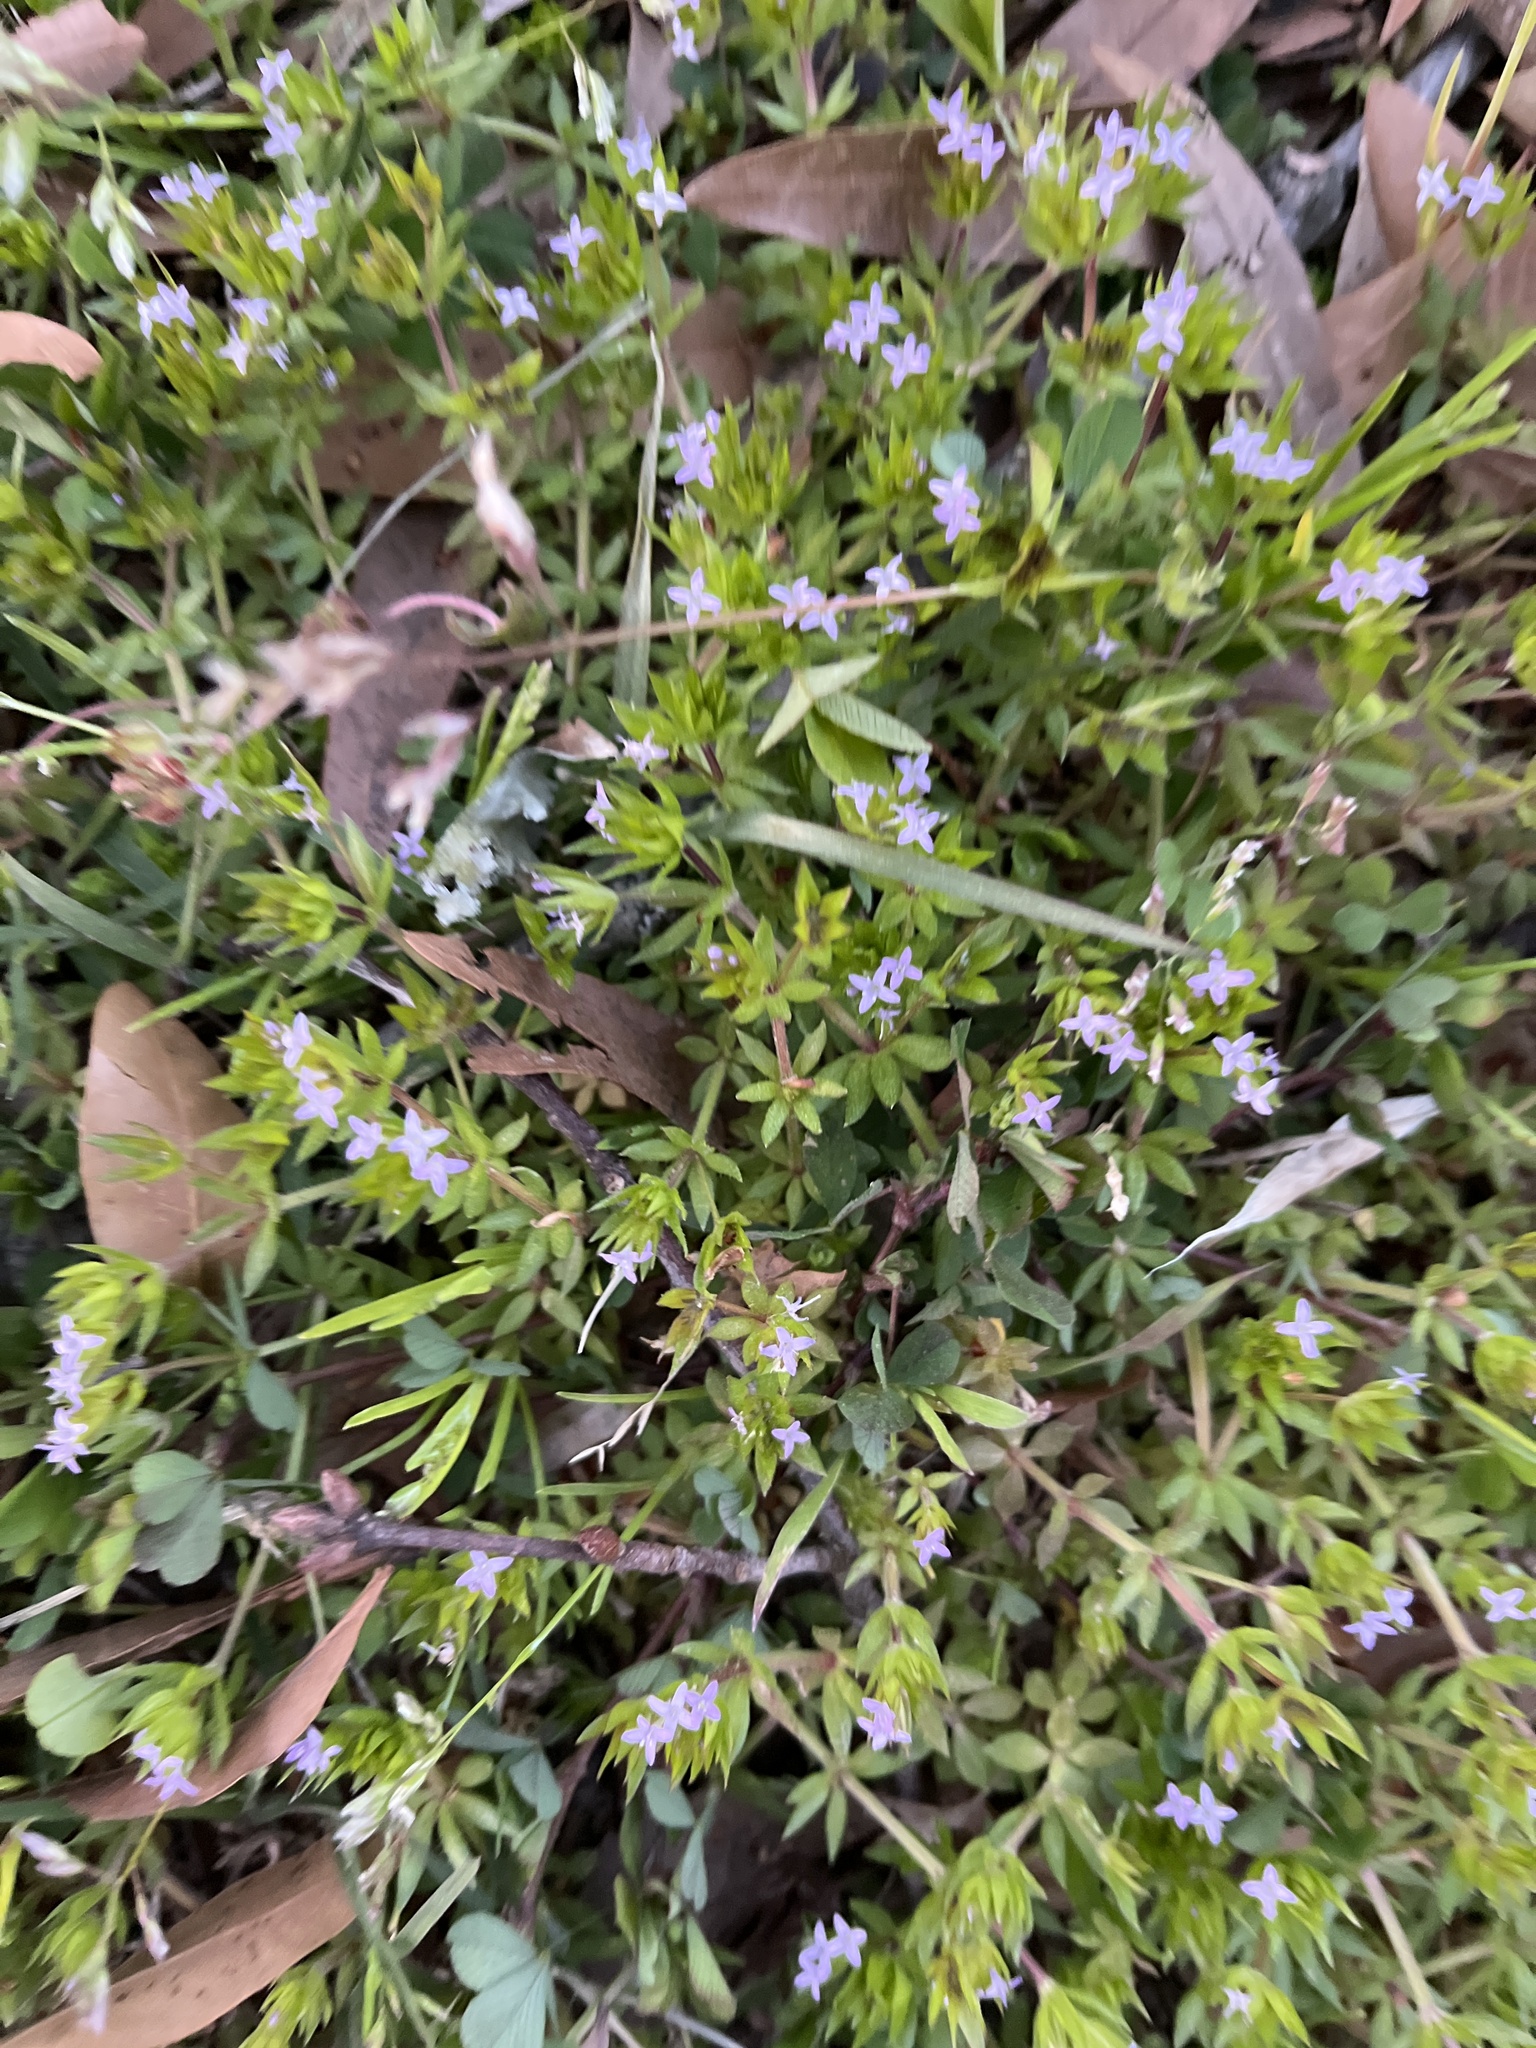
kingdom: Plantae
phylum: Tracheophyta
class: Magnoliopsida
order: Gentianales
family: Rubiaceae
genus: Sherardia
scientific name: Sherardia arvensis
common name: Field madder
